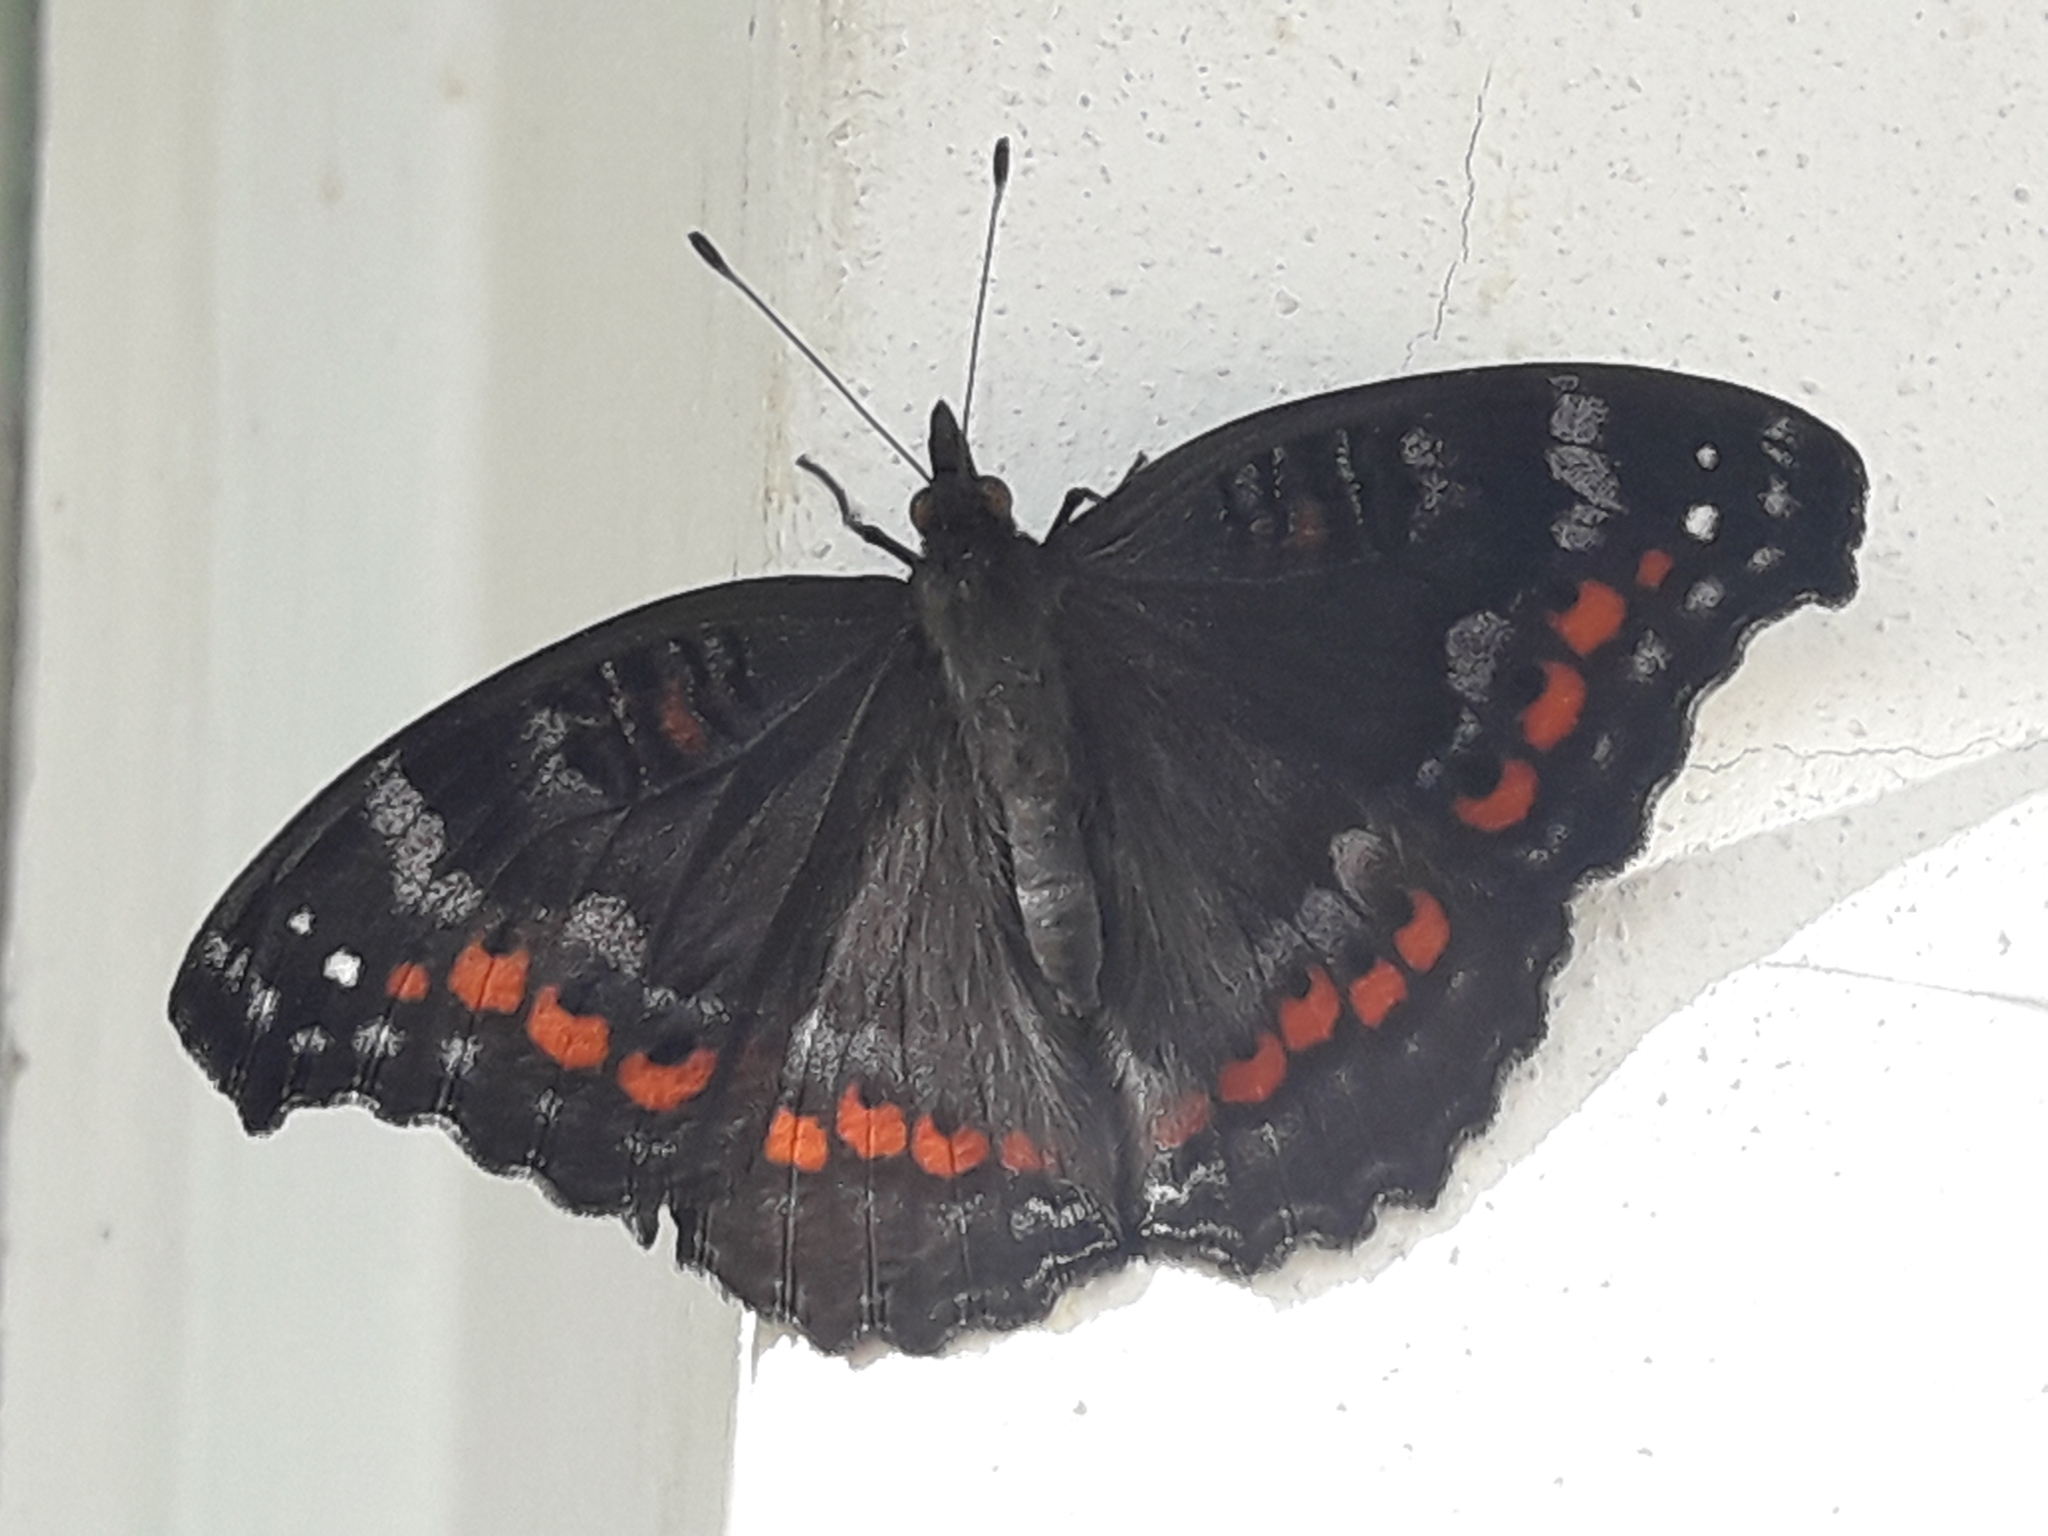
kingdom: Animalia
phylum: Arthropoda
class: Insecta
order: Lepidoptera
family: Nymphalidae
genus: Precis
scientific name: Precis octavia
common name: Gaudy commodore
